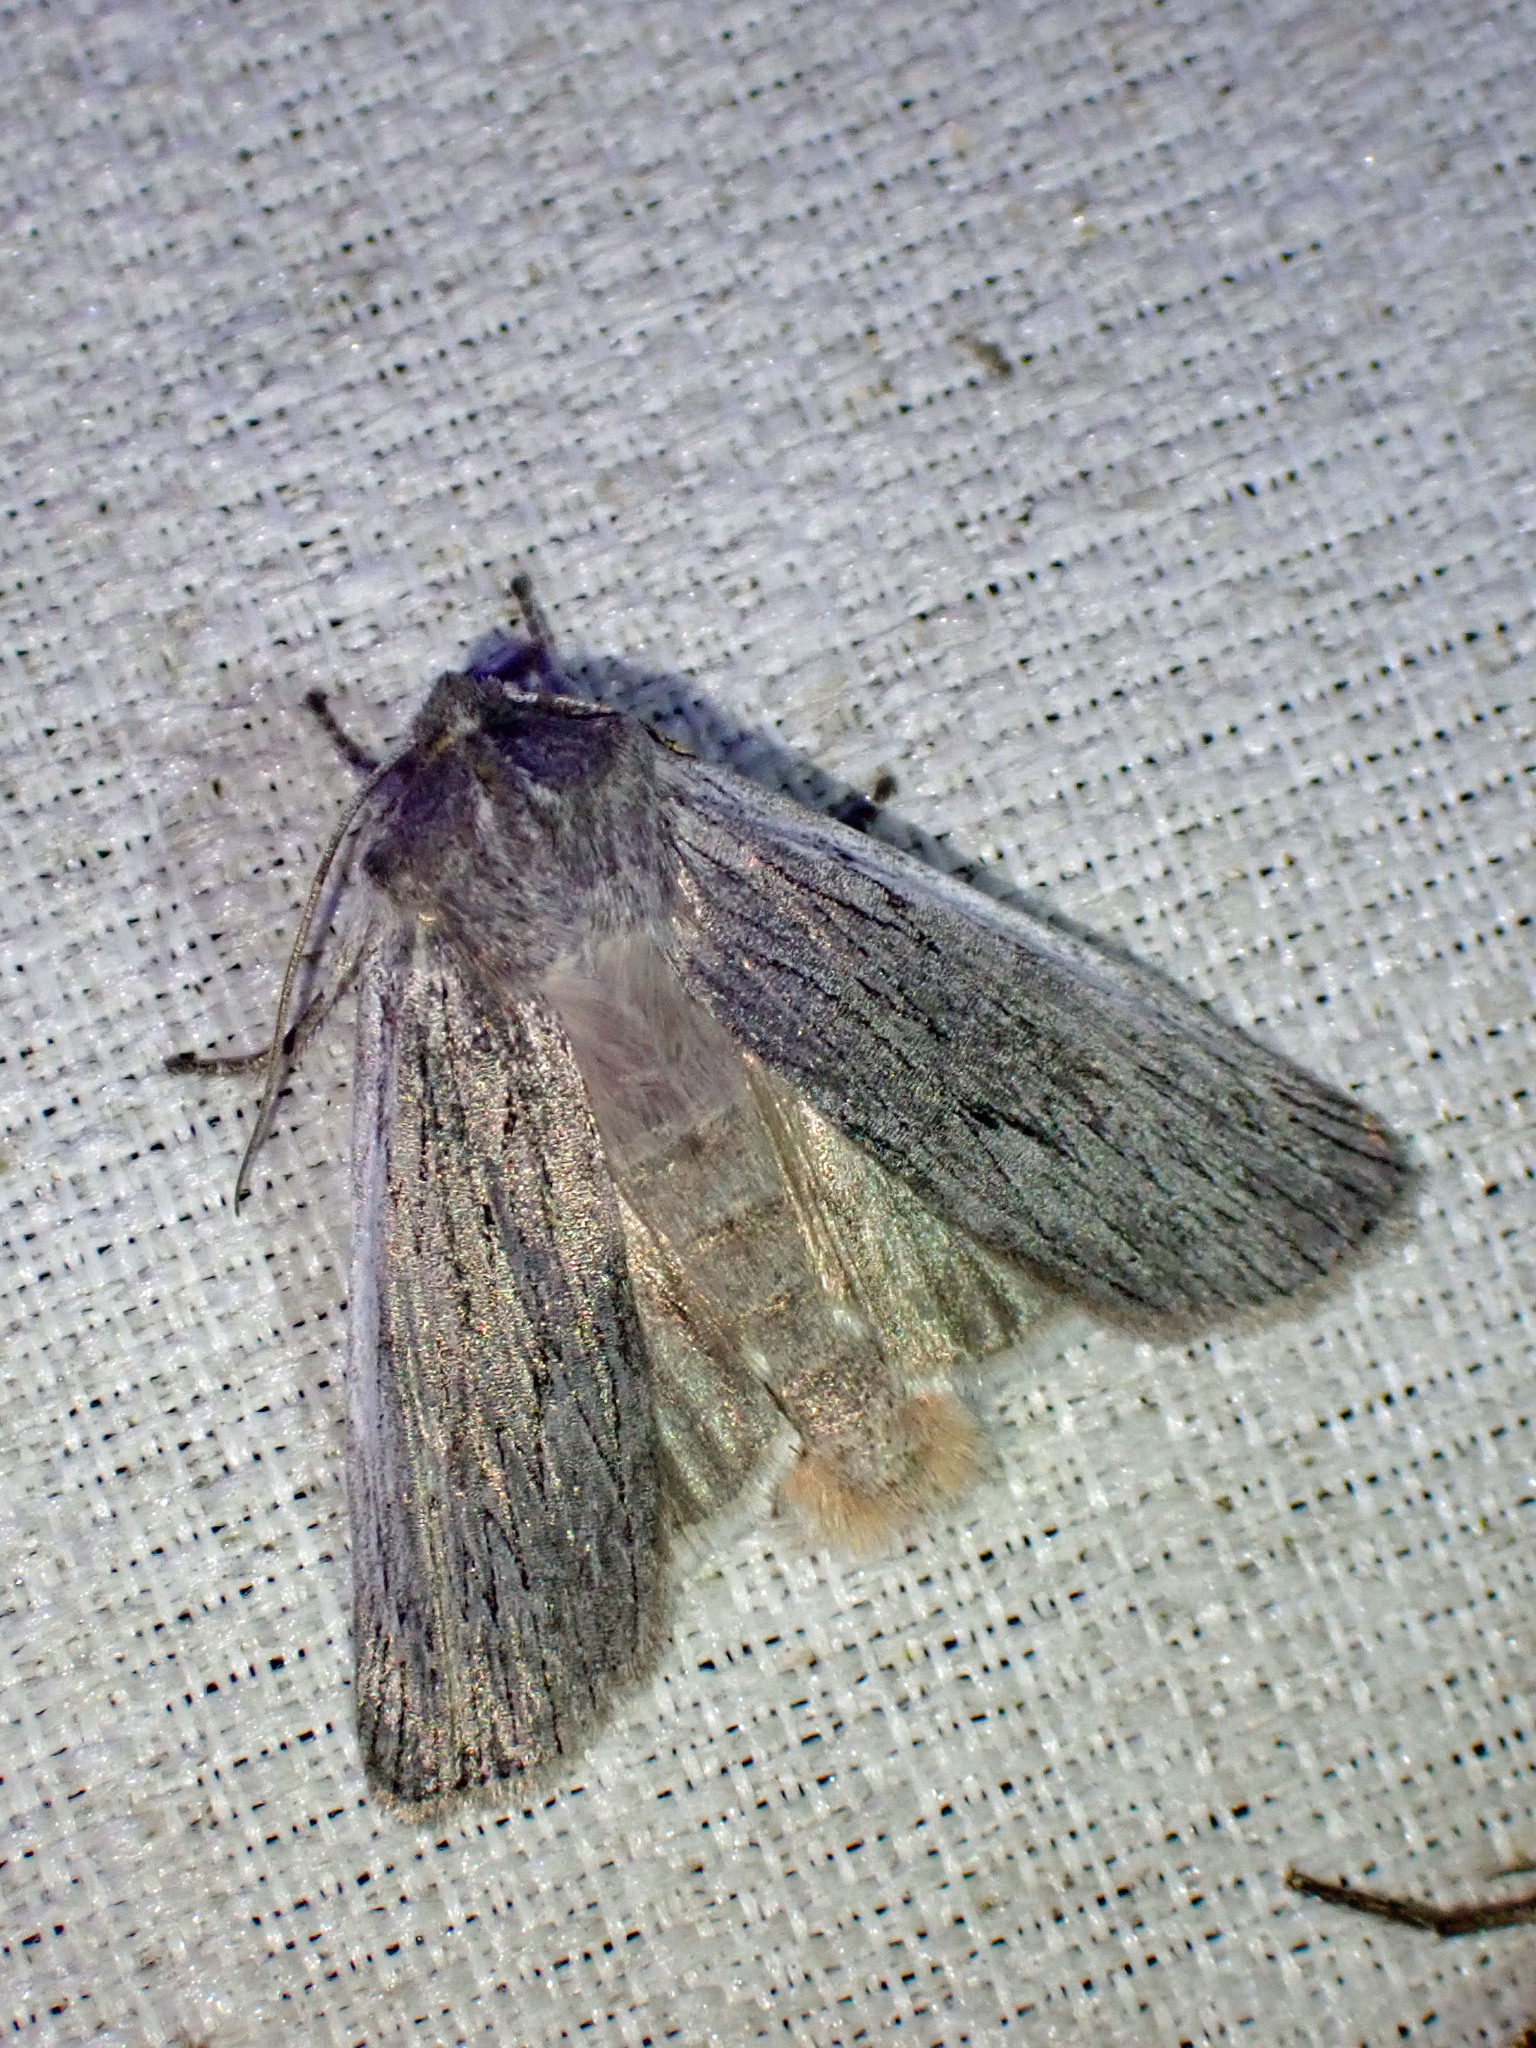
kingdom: Animalia
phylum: Arthropoda
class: Insecta
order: Lepidoptera
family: Noctuidae
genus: Lithophane
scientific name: Lithophane fagina
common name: Hoary pinion moth
